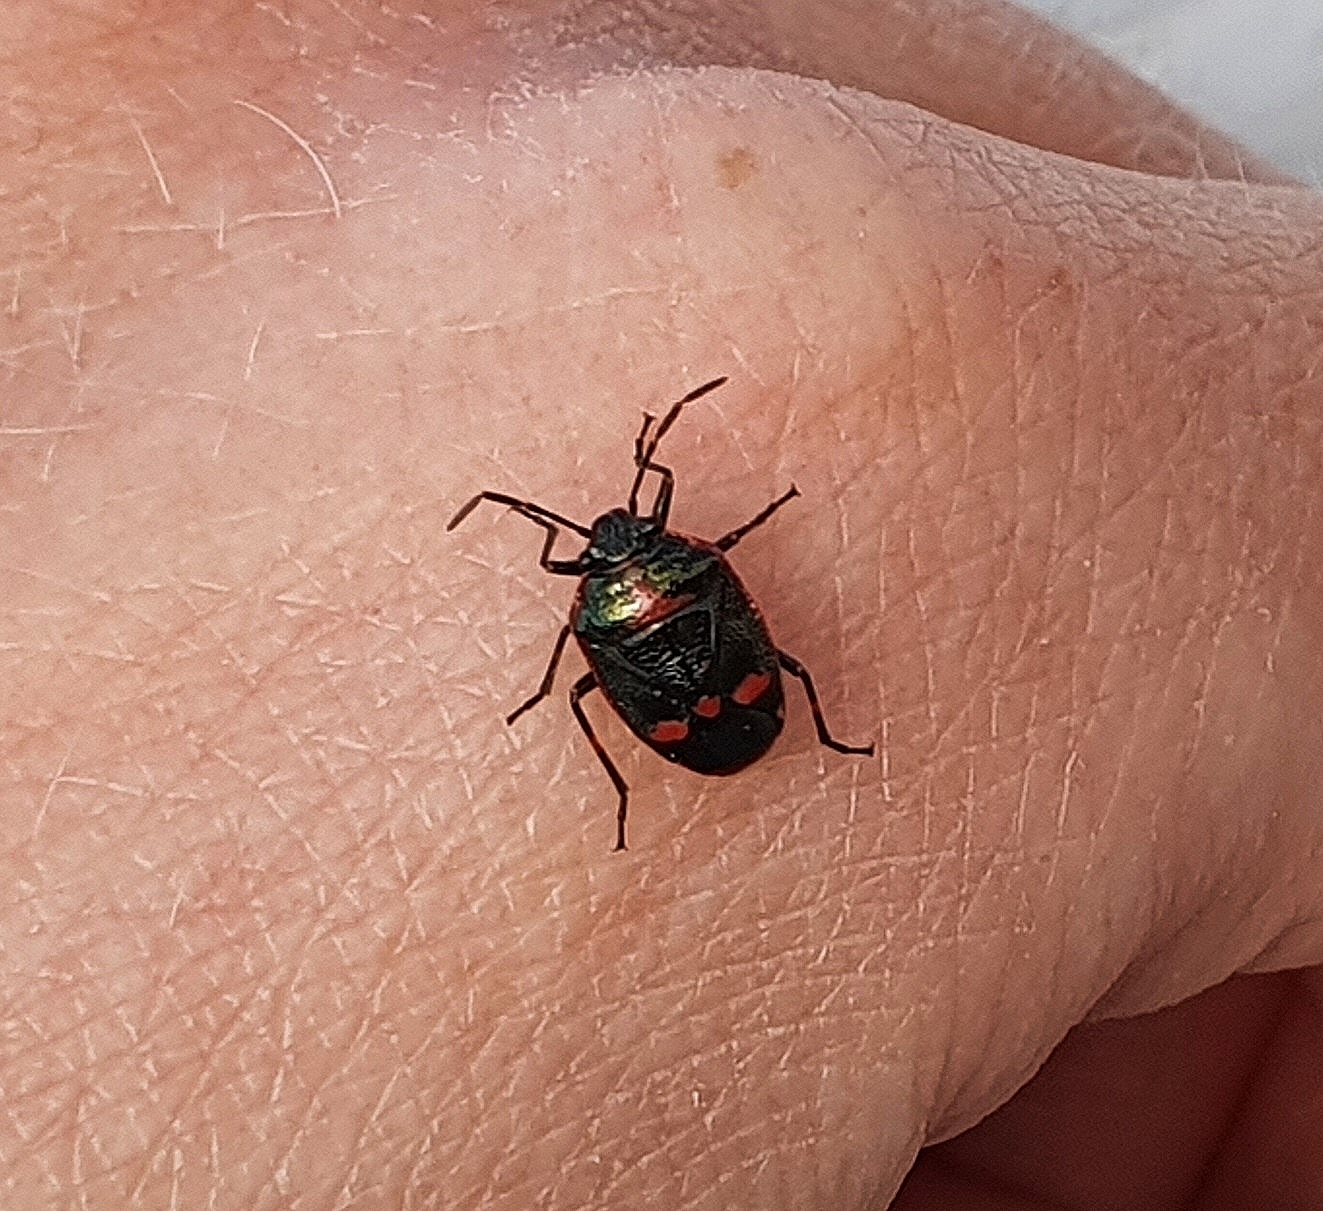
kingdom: Animalia
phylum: Arthropoda
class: Insecta
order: Hemiptera
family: Pentatomidae
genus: Eurydema
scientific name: Eurydema oleracea
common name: Cabbage bug
